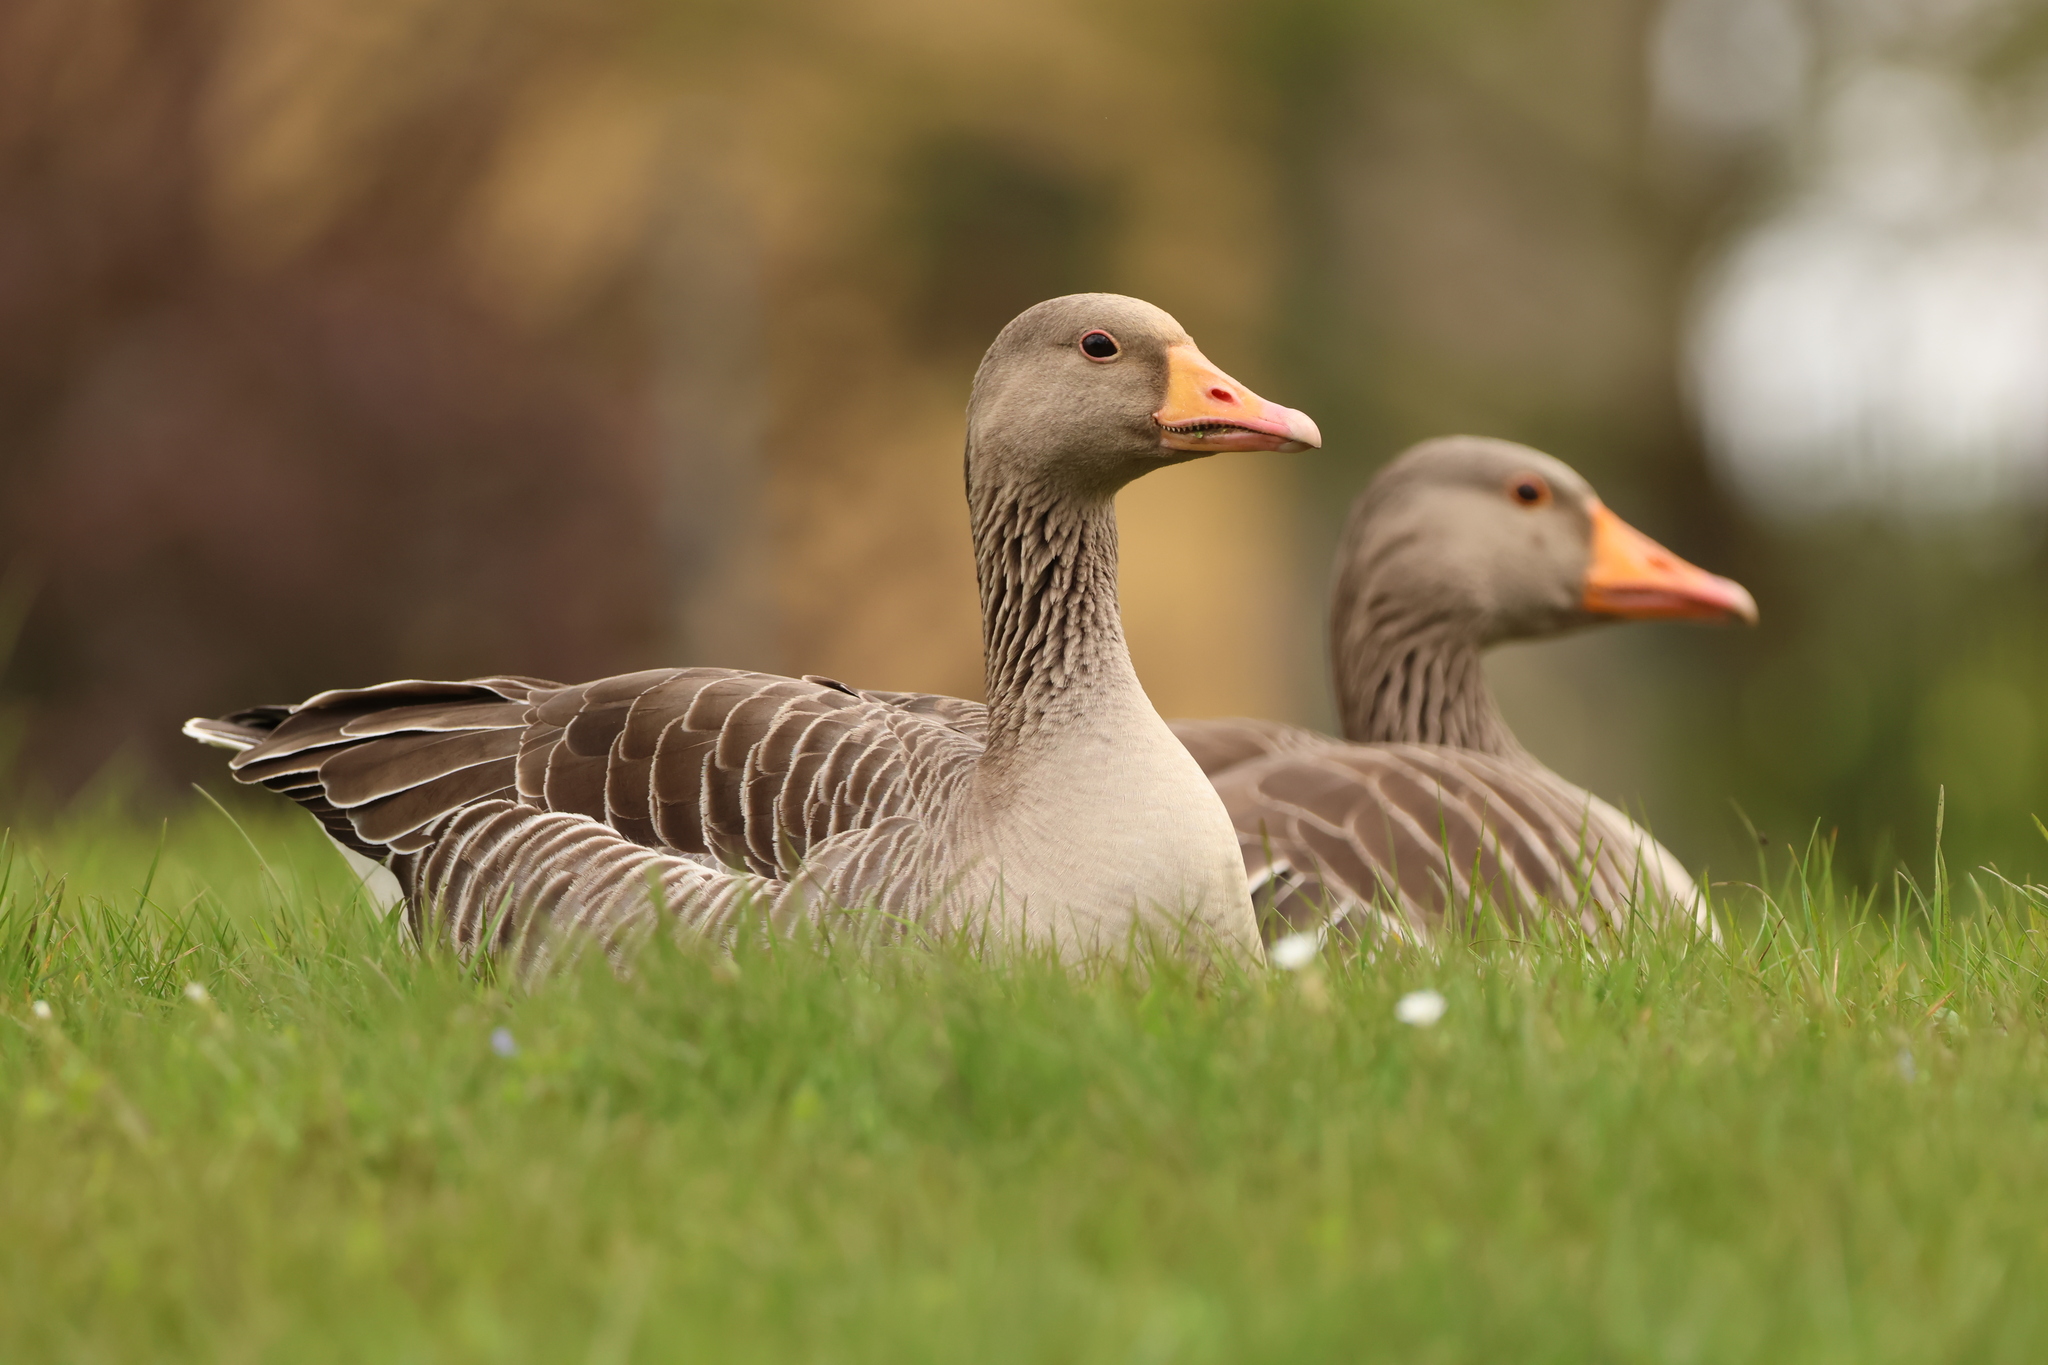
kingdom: Animalia
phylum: Chordata
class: Aves
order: Anseriformes
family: Anatidae
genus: Anser
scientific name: Anser anser
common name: Greylag goose
